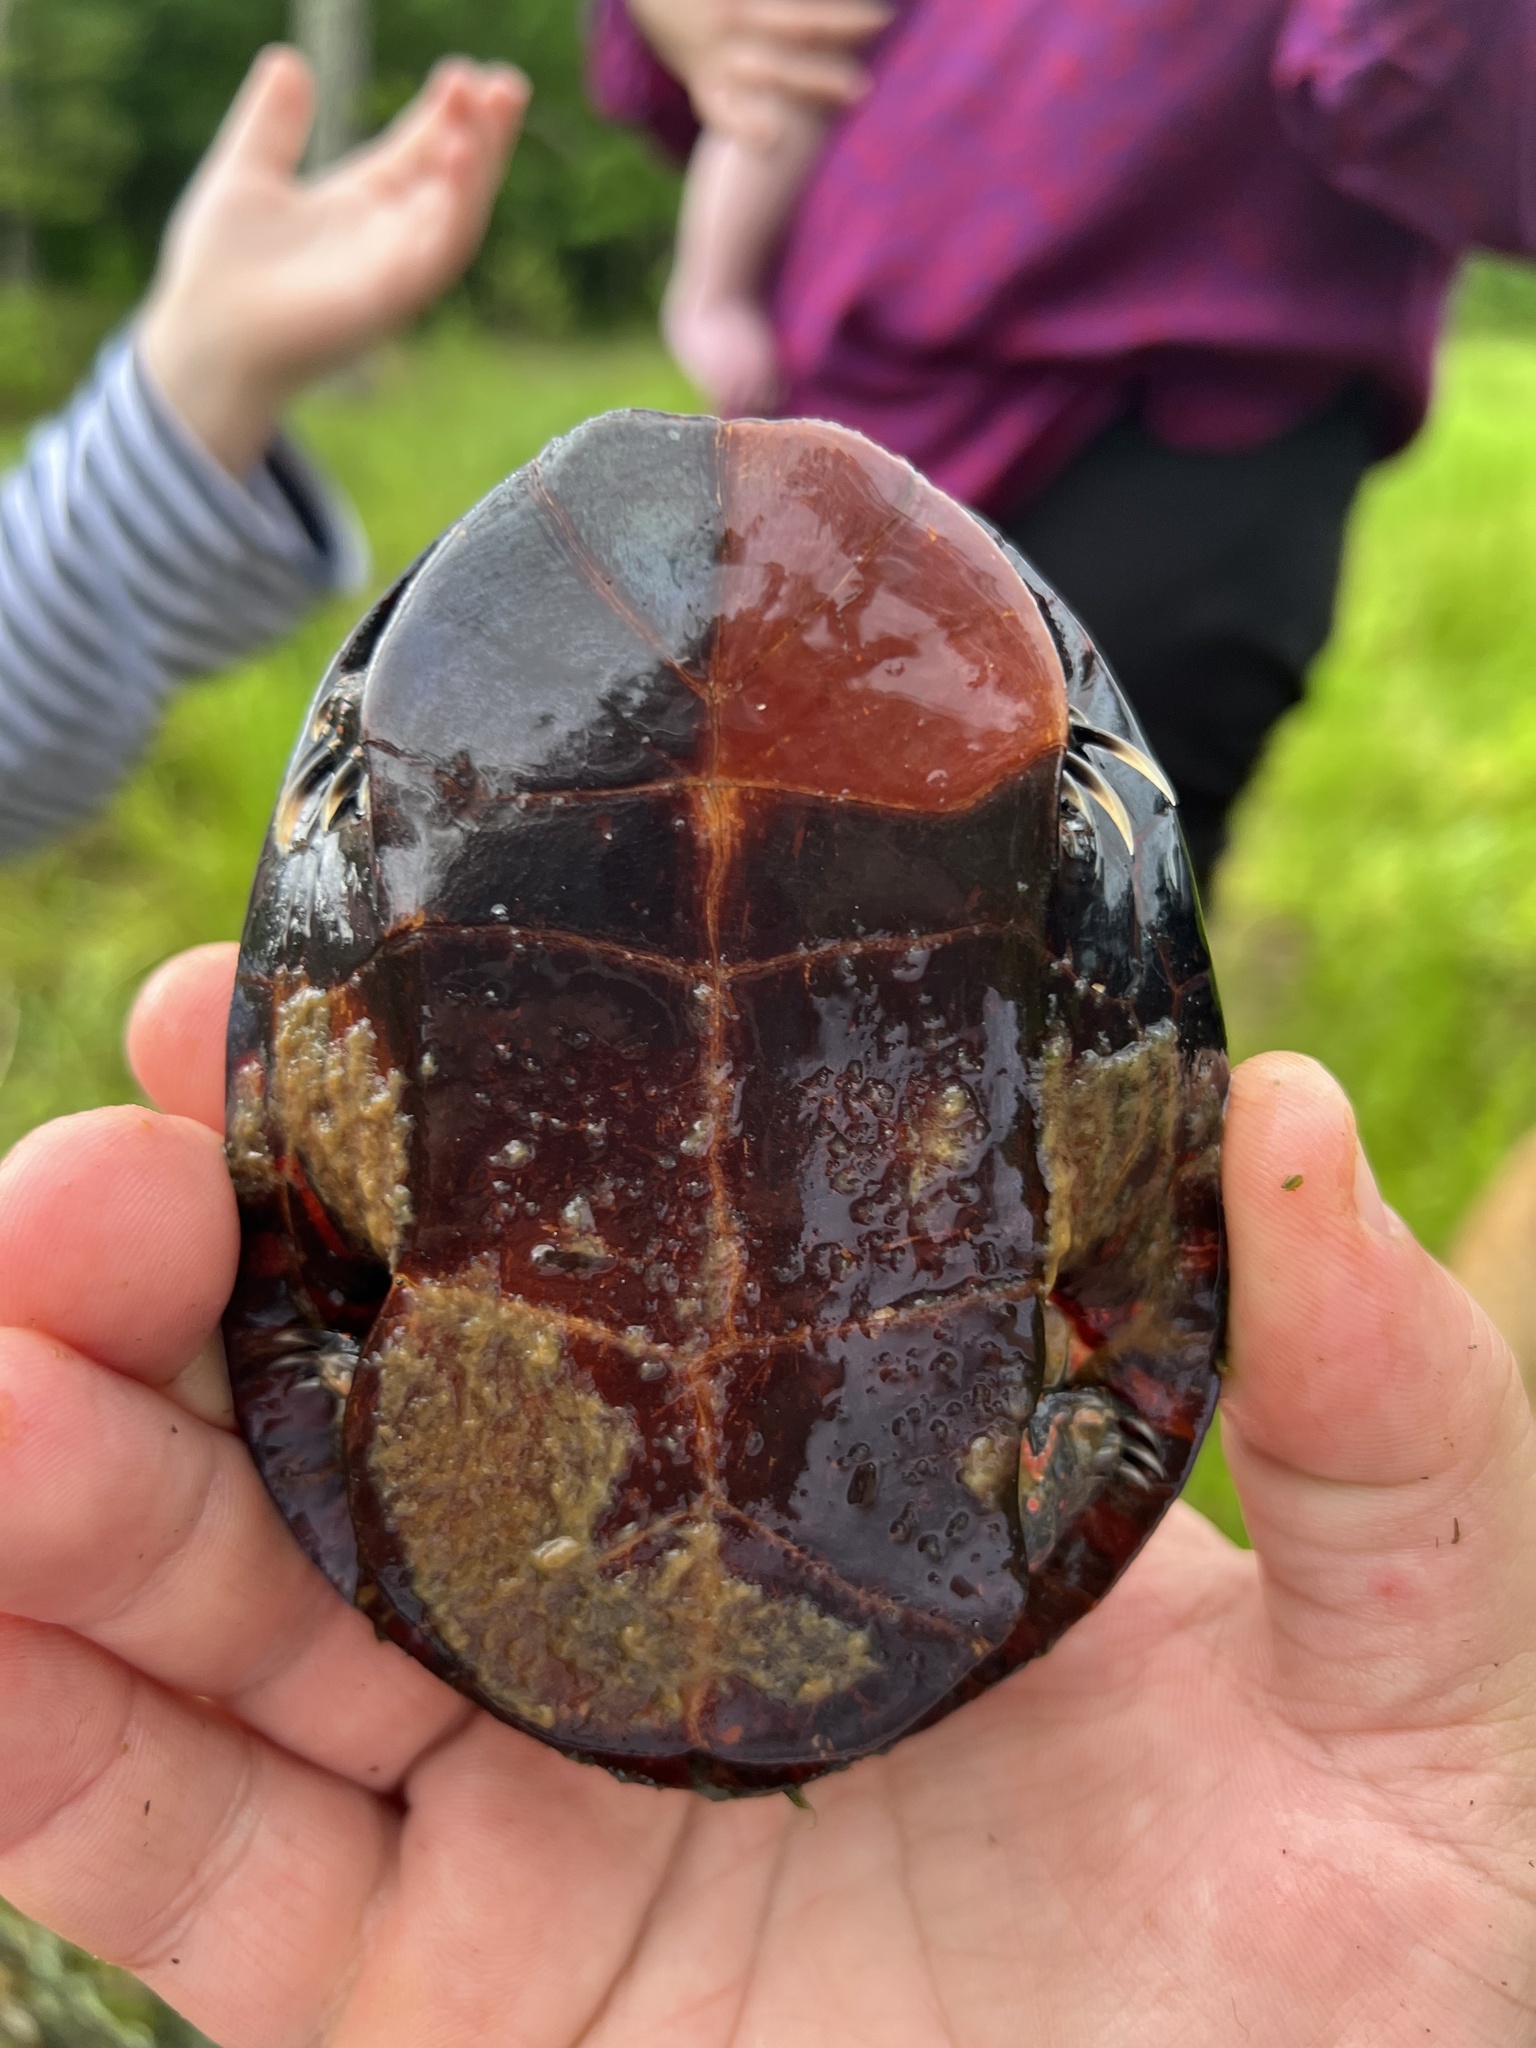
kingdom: Animalia
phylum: Chordata
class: Testudines
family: Emydidae
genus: Chrysemys
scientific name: Chrysemys picta
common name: Painted turtle
